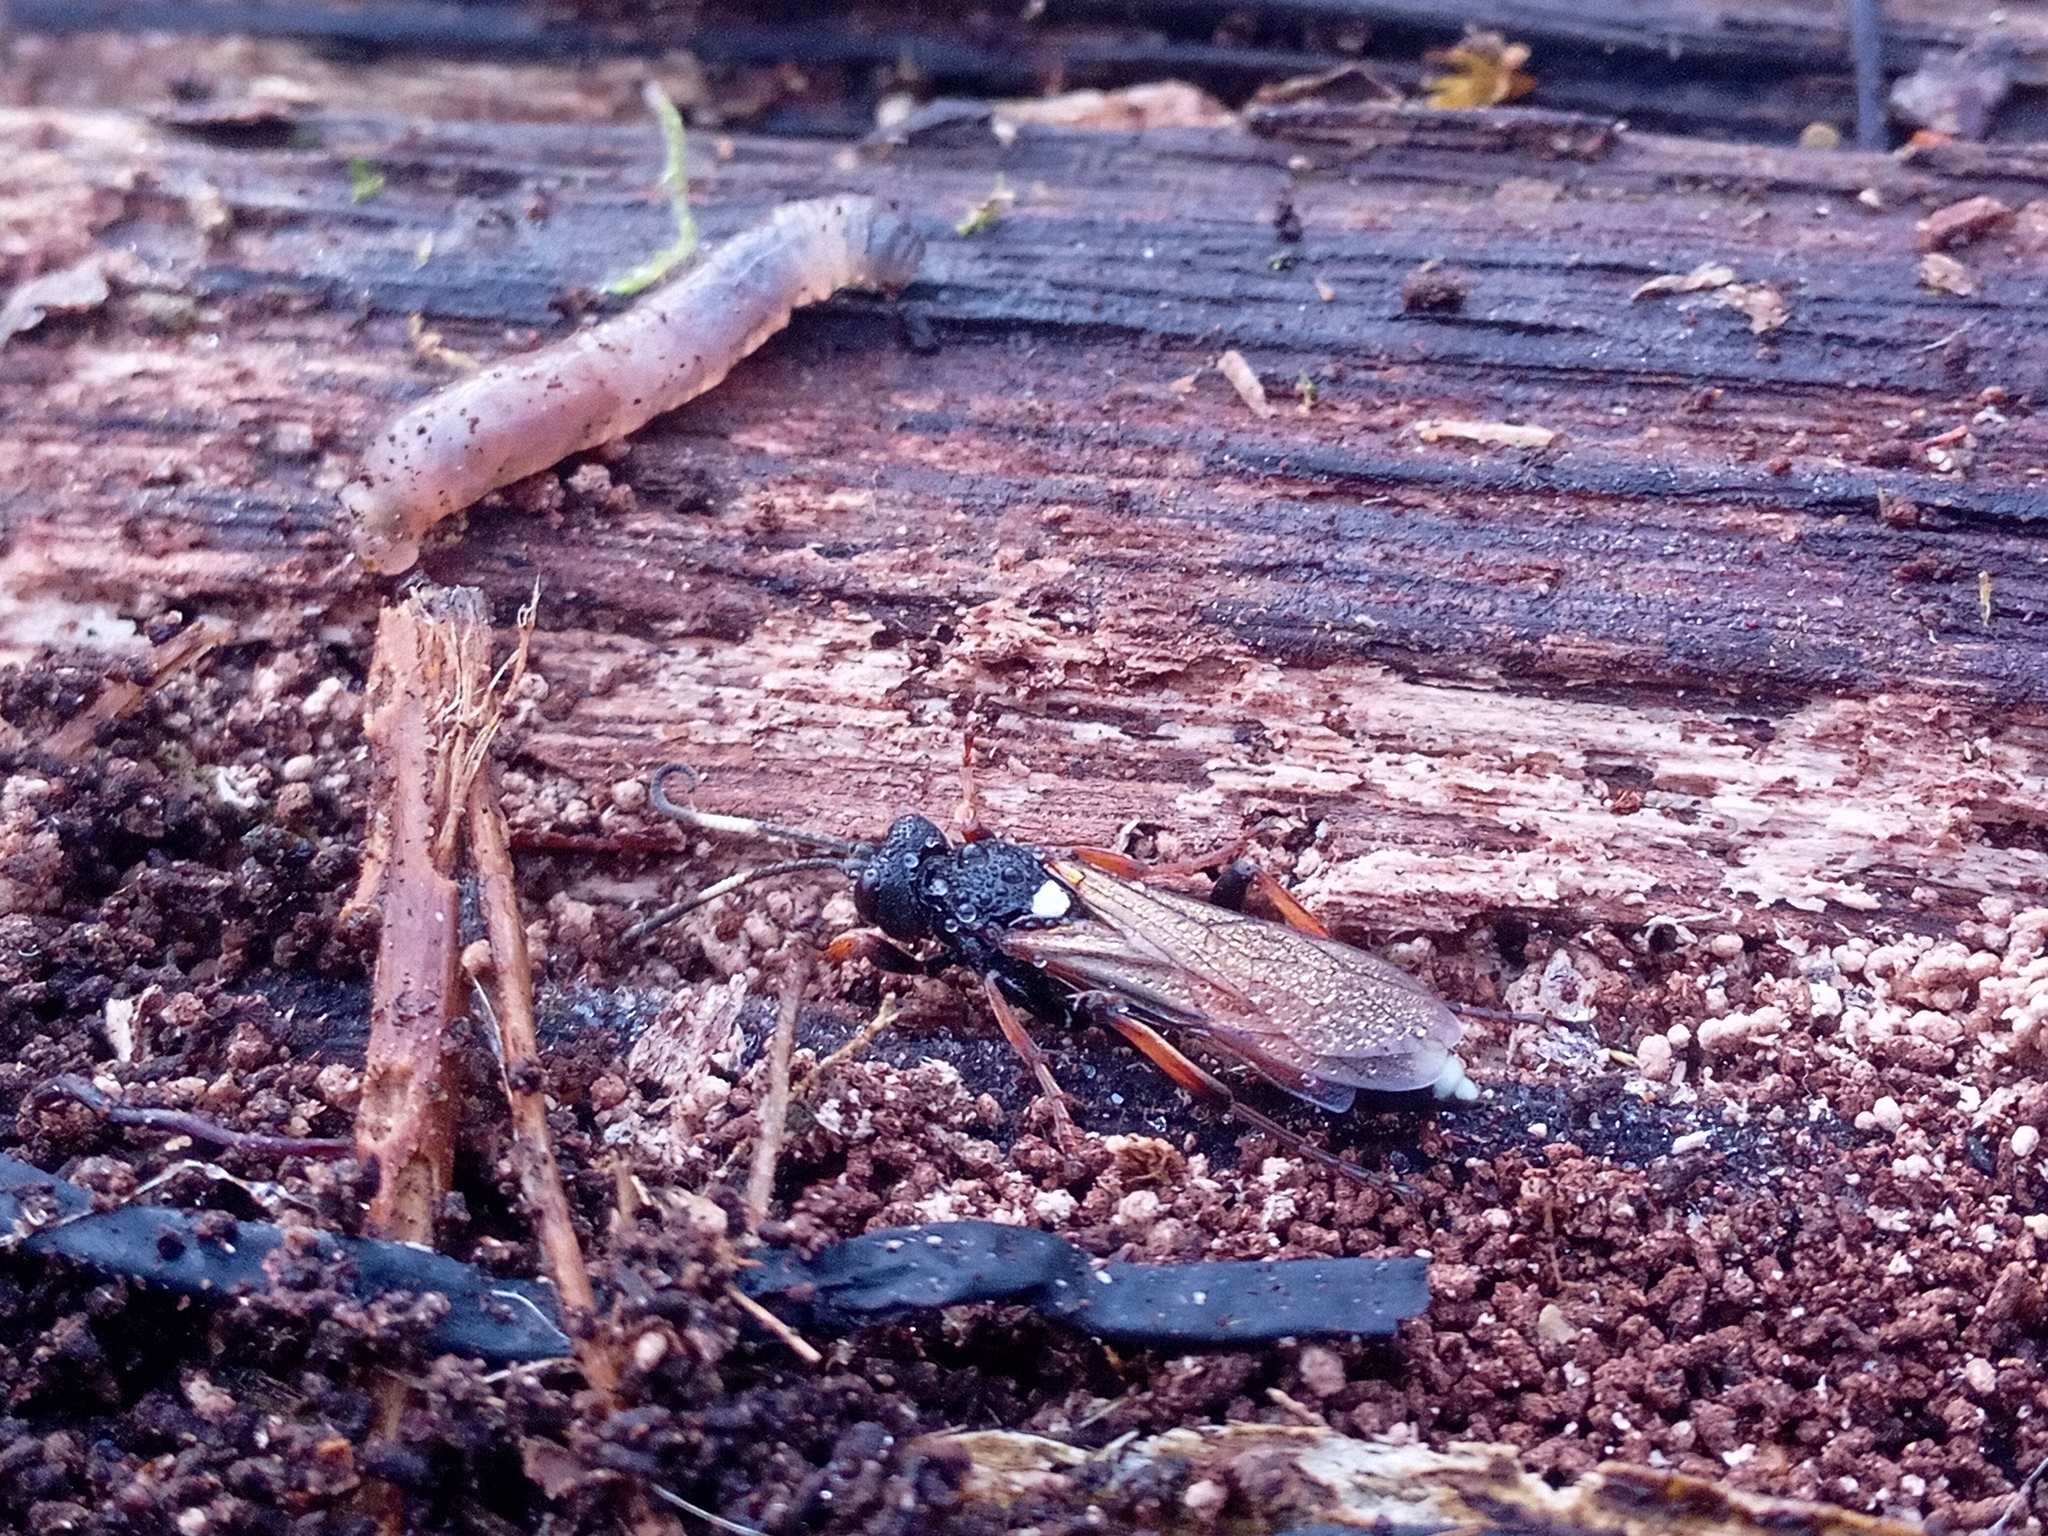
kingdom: Animalia
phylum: Arthropoda
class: Insecta
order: Hymenoptera
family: Ichneumonidae
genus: Ichneumon
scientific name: Ichneumon bucculentus
